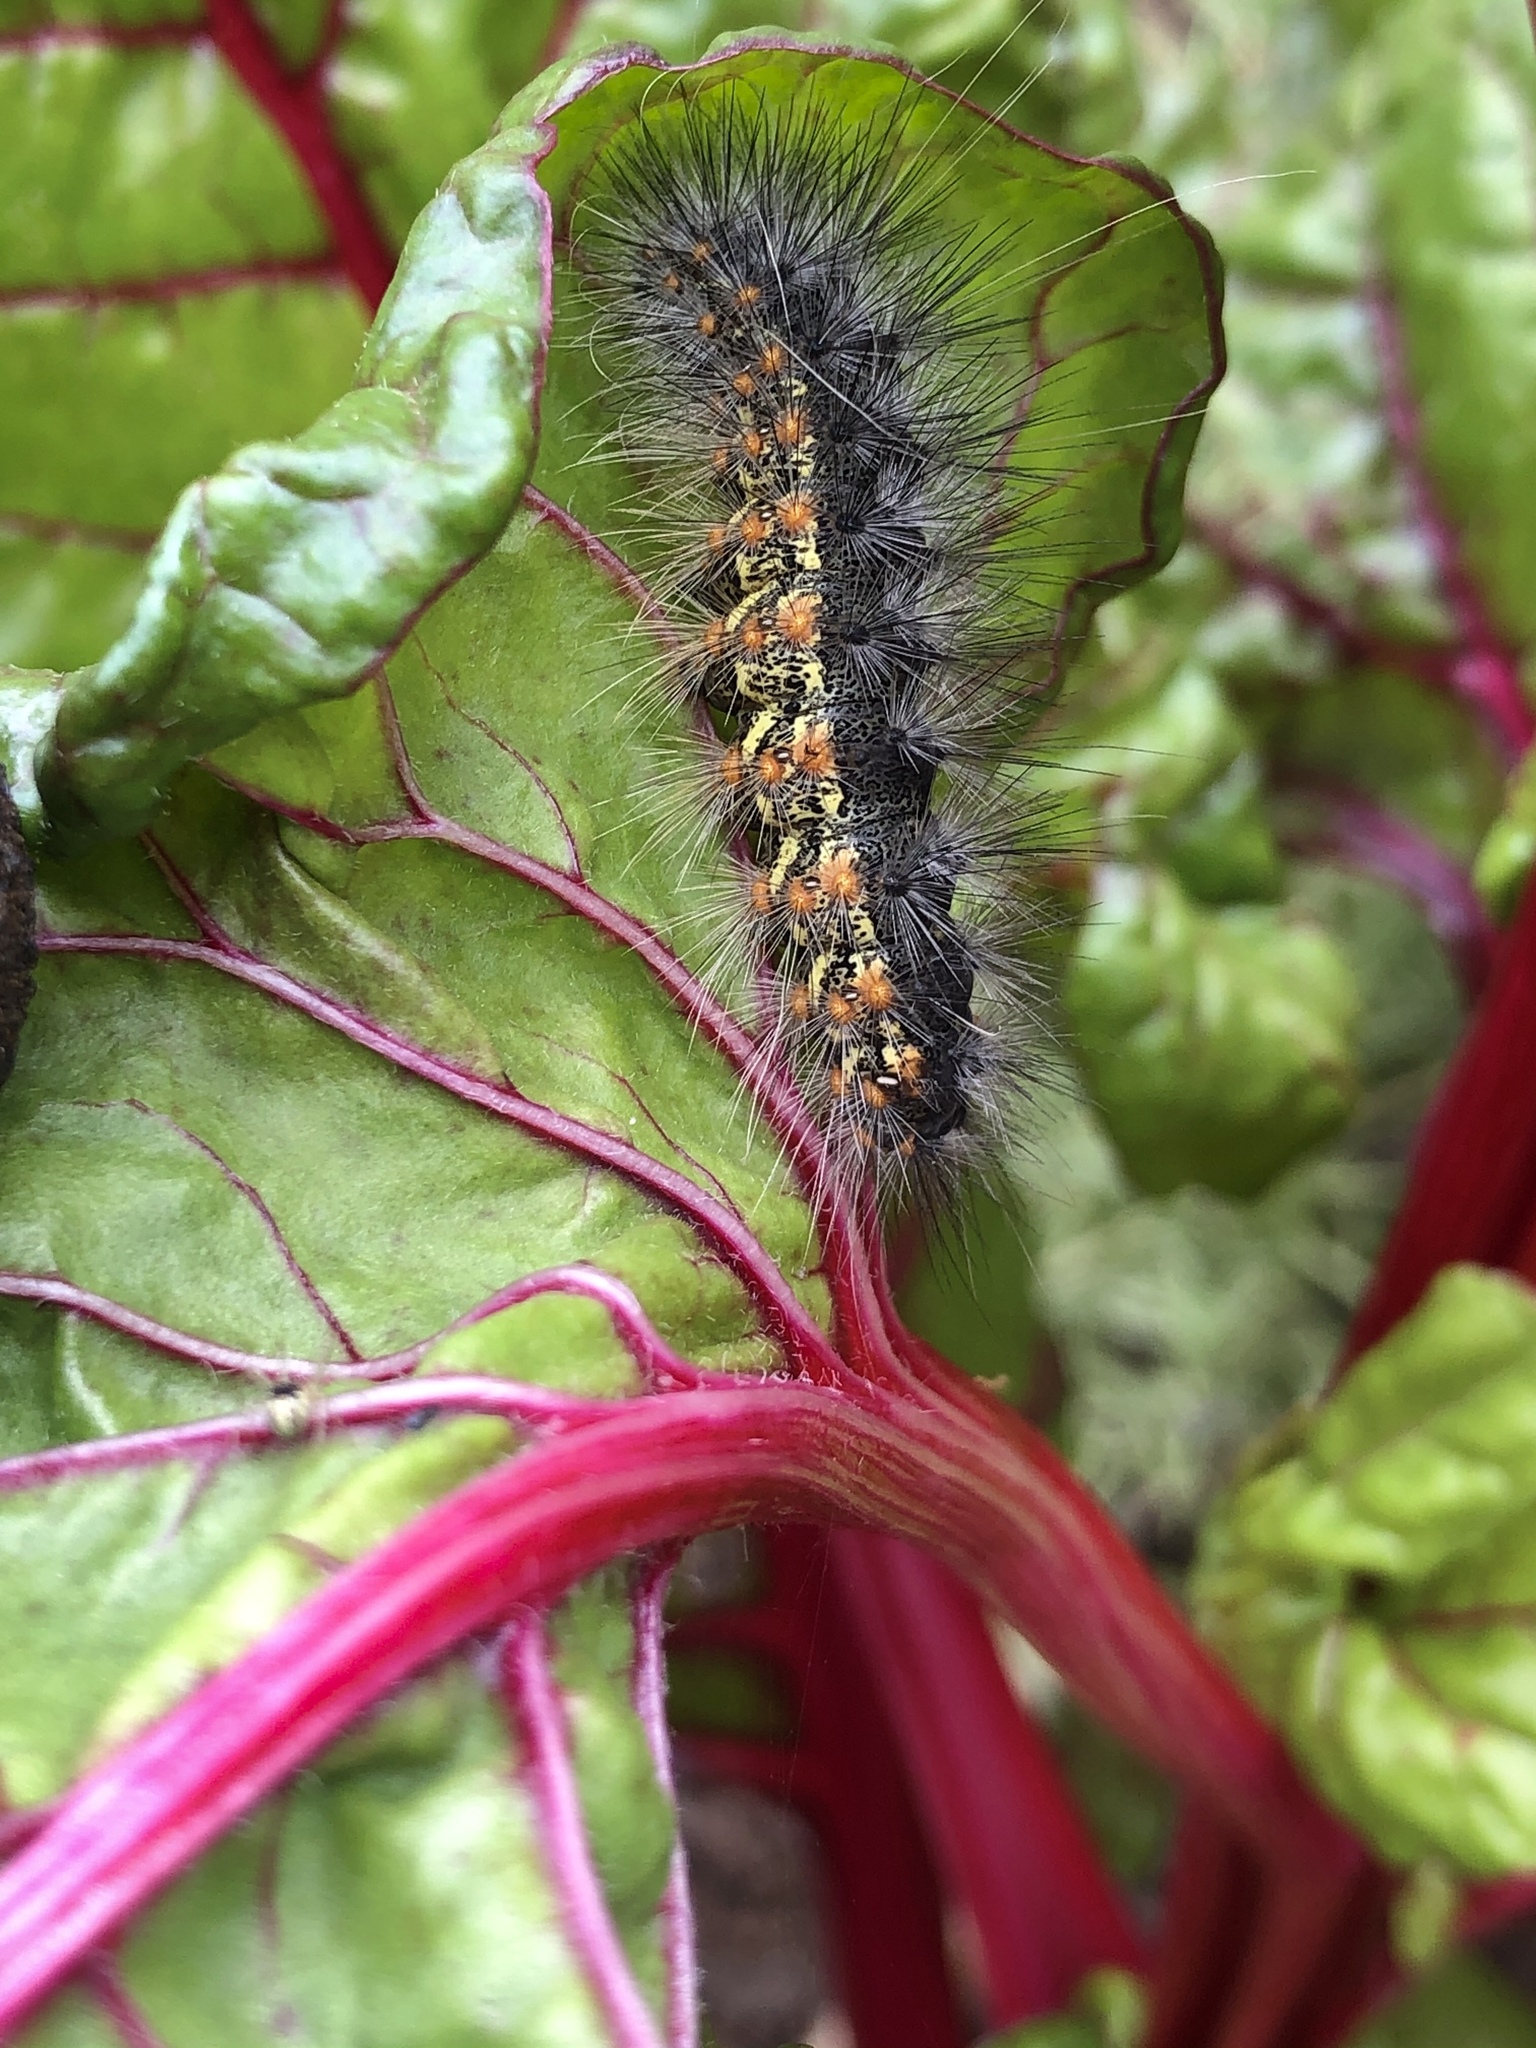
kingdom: Animalia
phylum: Arthropoda
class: Insecta
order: Lepidoptera
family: Erebidae
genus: Estigmene
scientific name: Estigmene acrea
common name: Salt marsh moth
